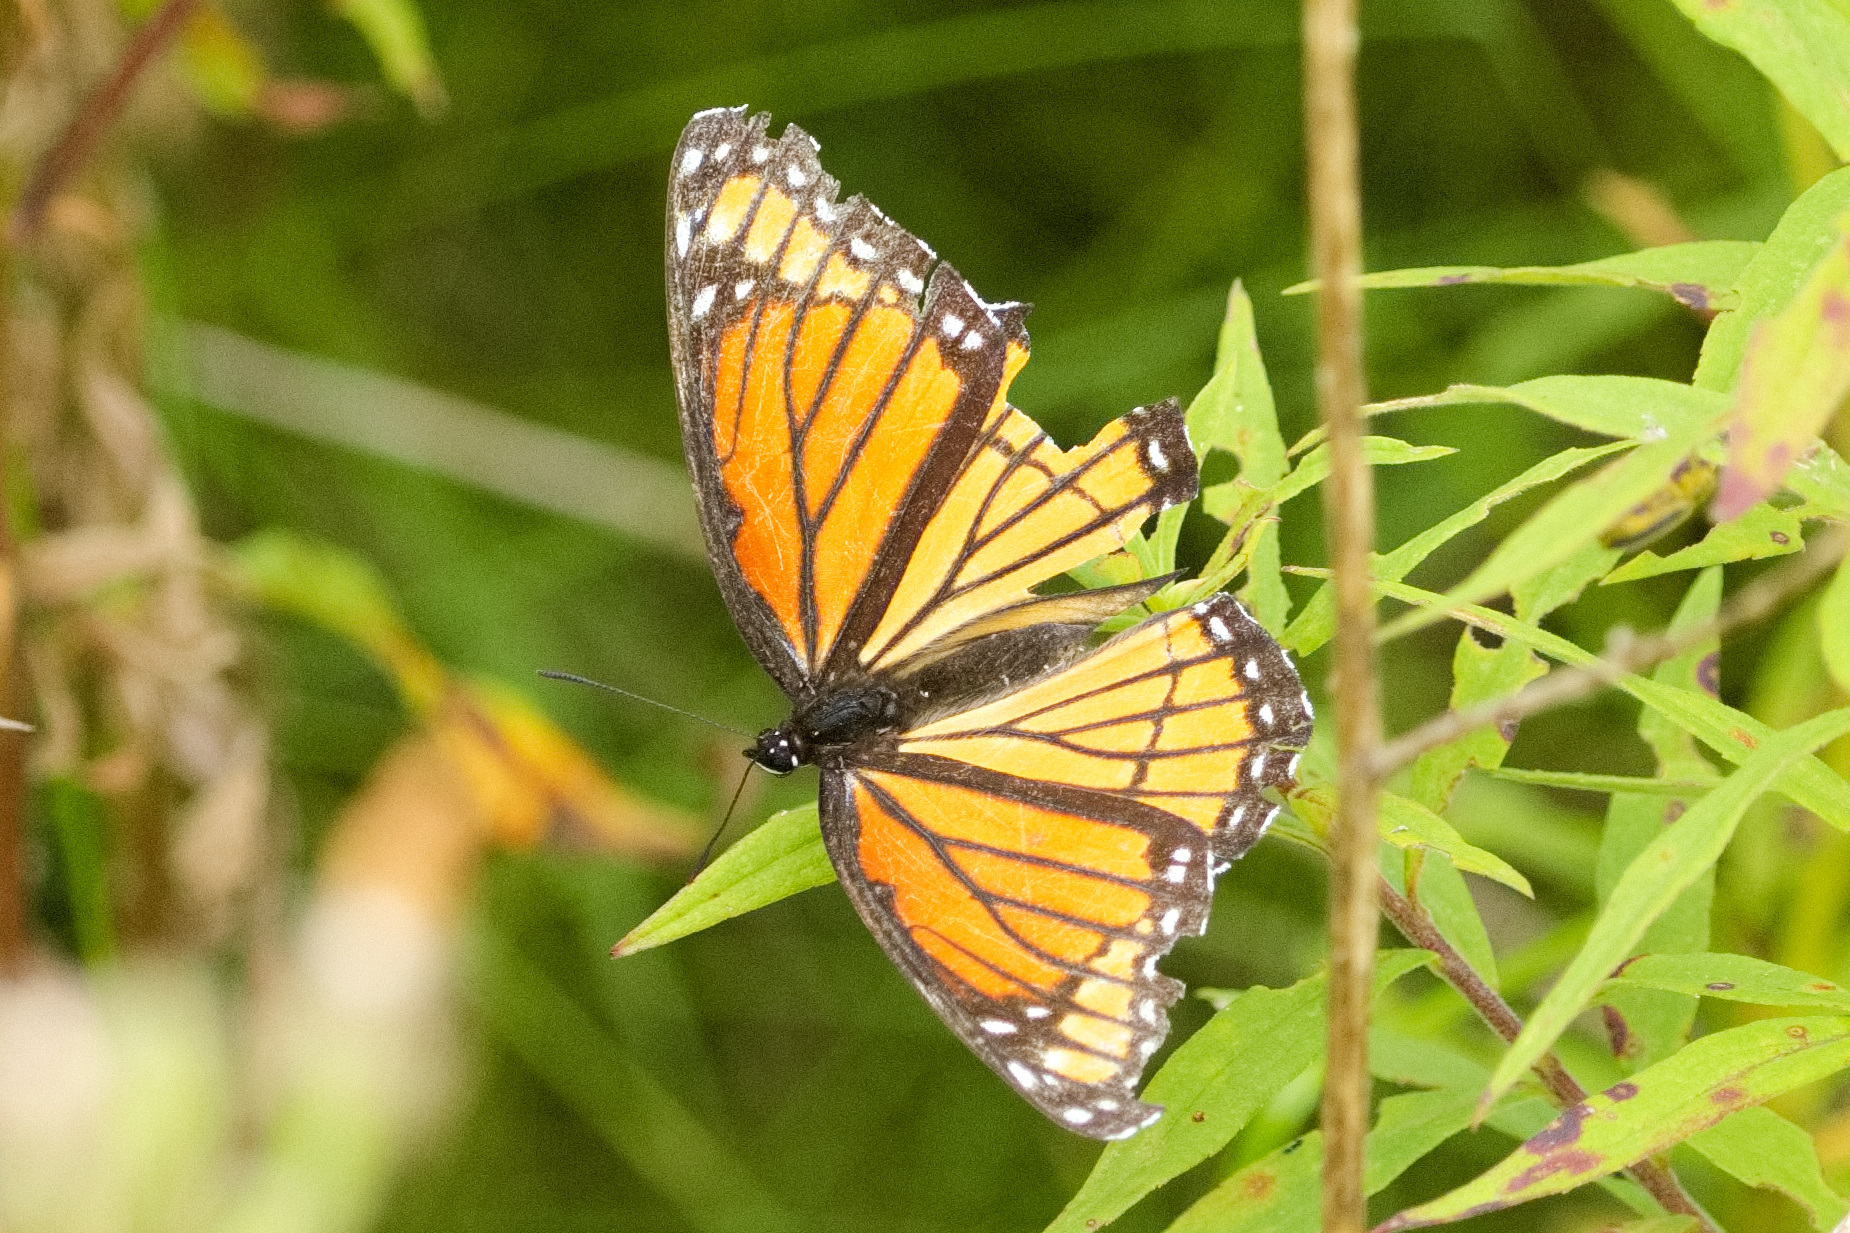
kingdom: Animalia
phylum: Arthropoda
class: Insecta
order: Lepidoptera
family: Nymphalidae
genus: Limenitis
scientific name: Limenitis archippus
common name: Viceroy
